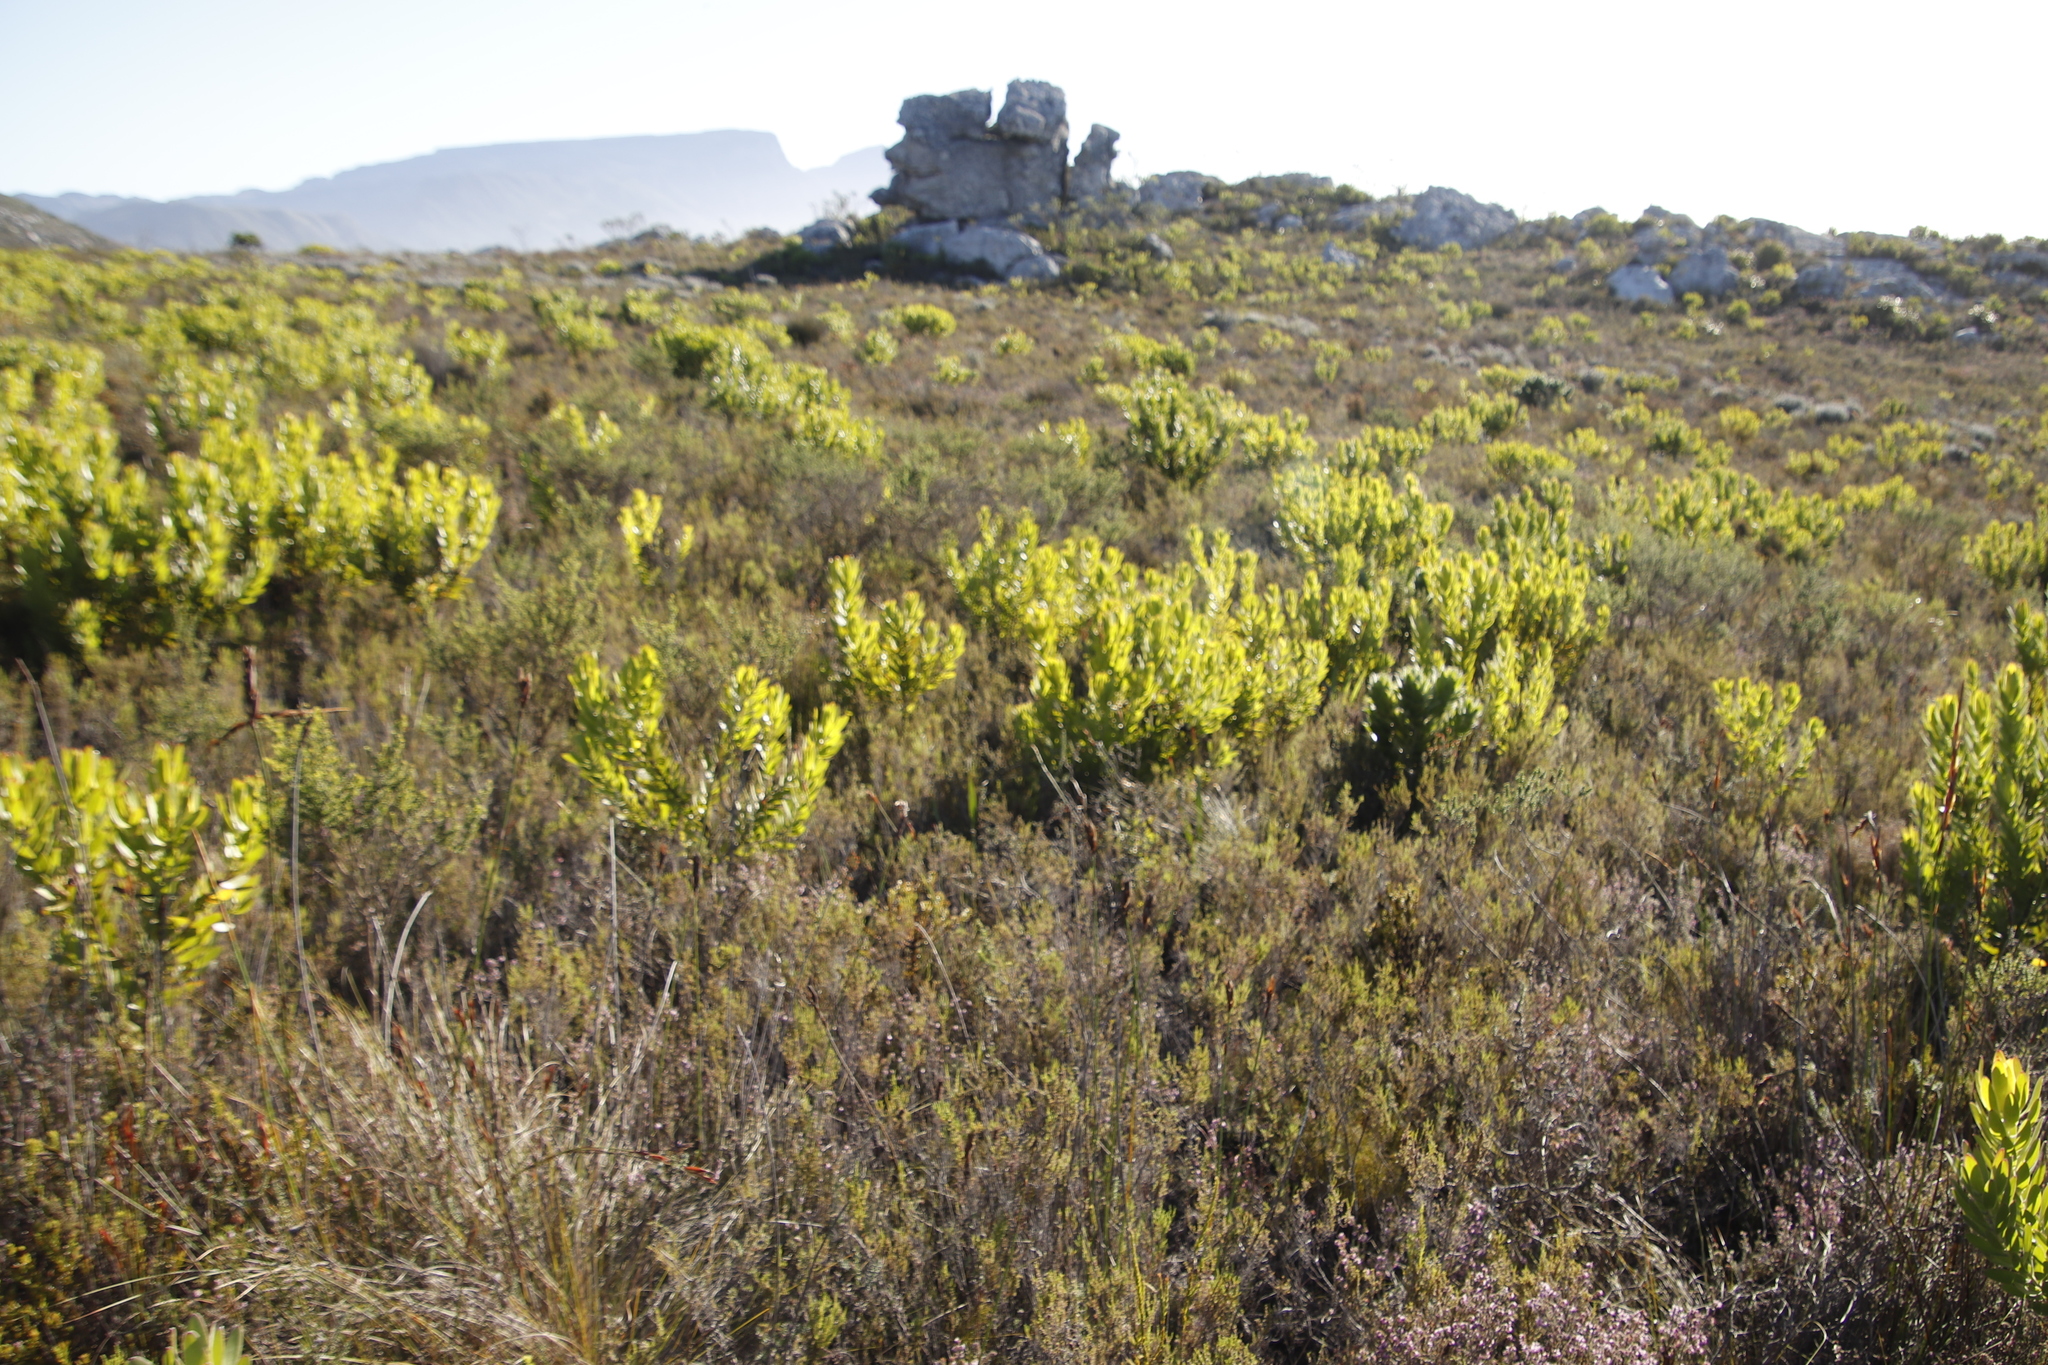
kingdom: Plantae
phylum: Tracheophyta
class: Magnoliopsida
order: Proteales
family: Proteaceae
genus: Leucadendron
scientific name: Leucadendron laureolum
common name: Golden sunshinebush
